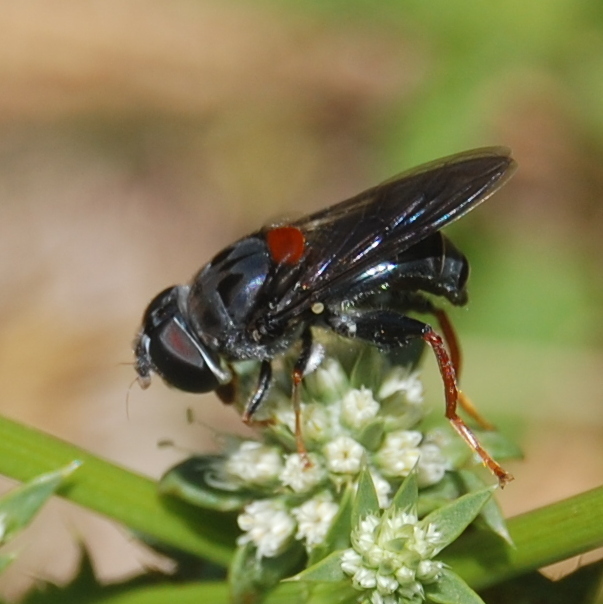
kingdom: Animalia
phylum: Arthropoda
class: Insecta
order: Diptera
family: Syrphidae
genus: Palpada
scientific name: Palpada rufoscutellata
